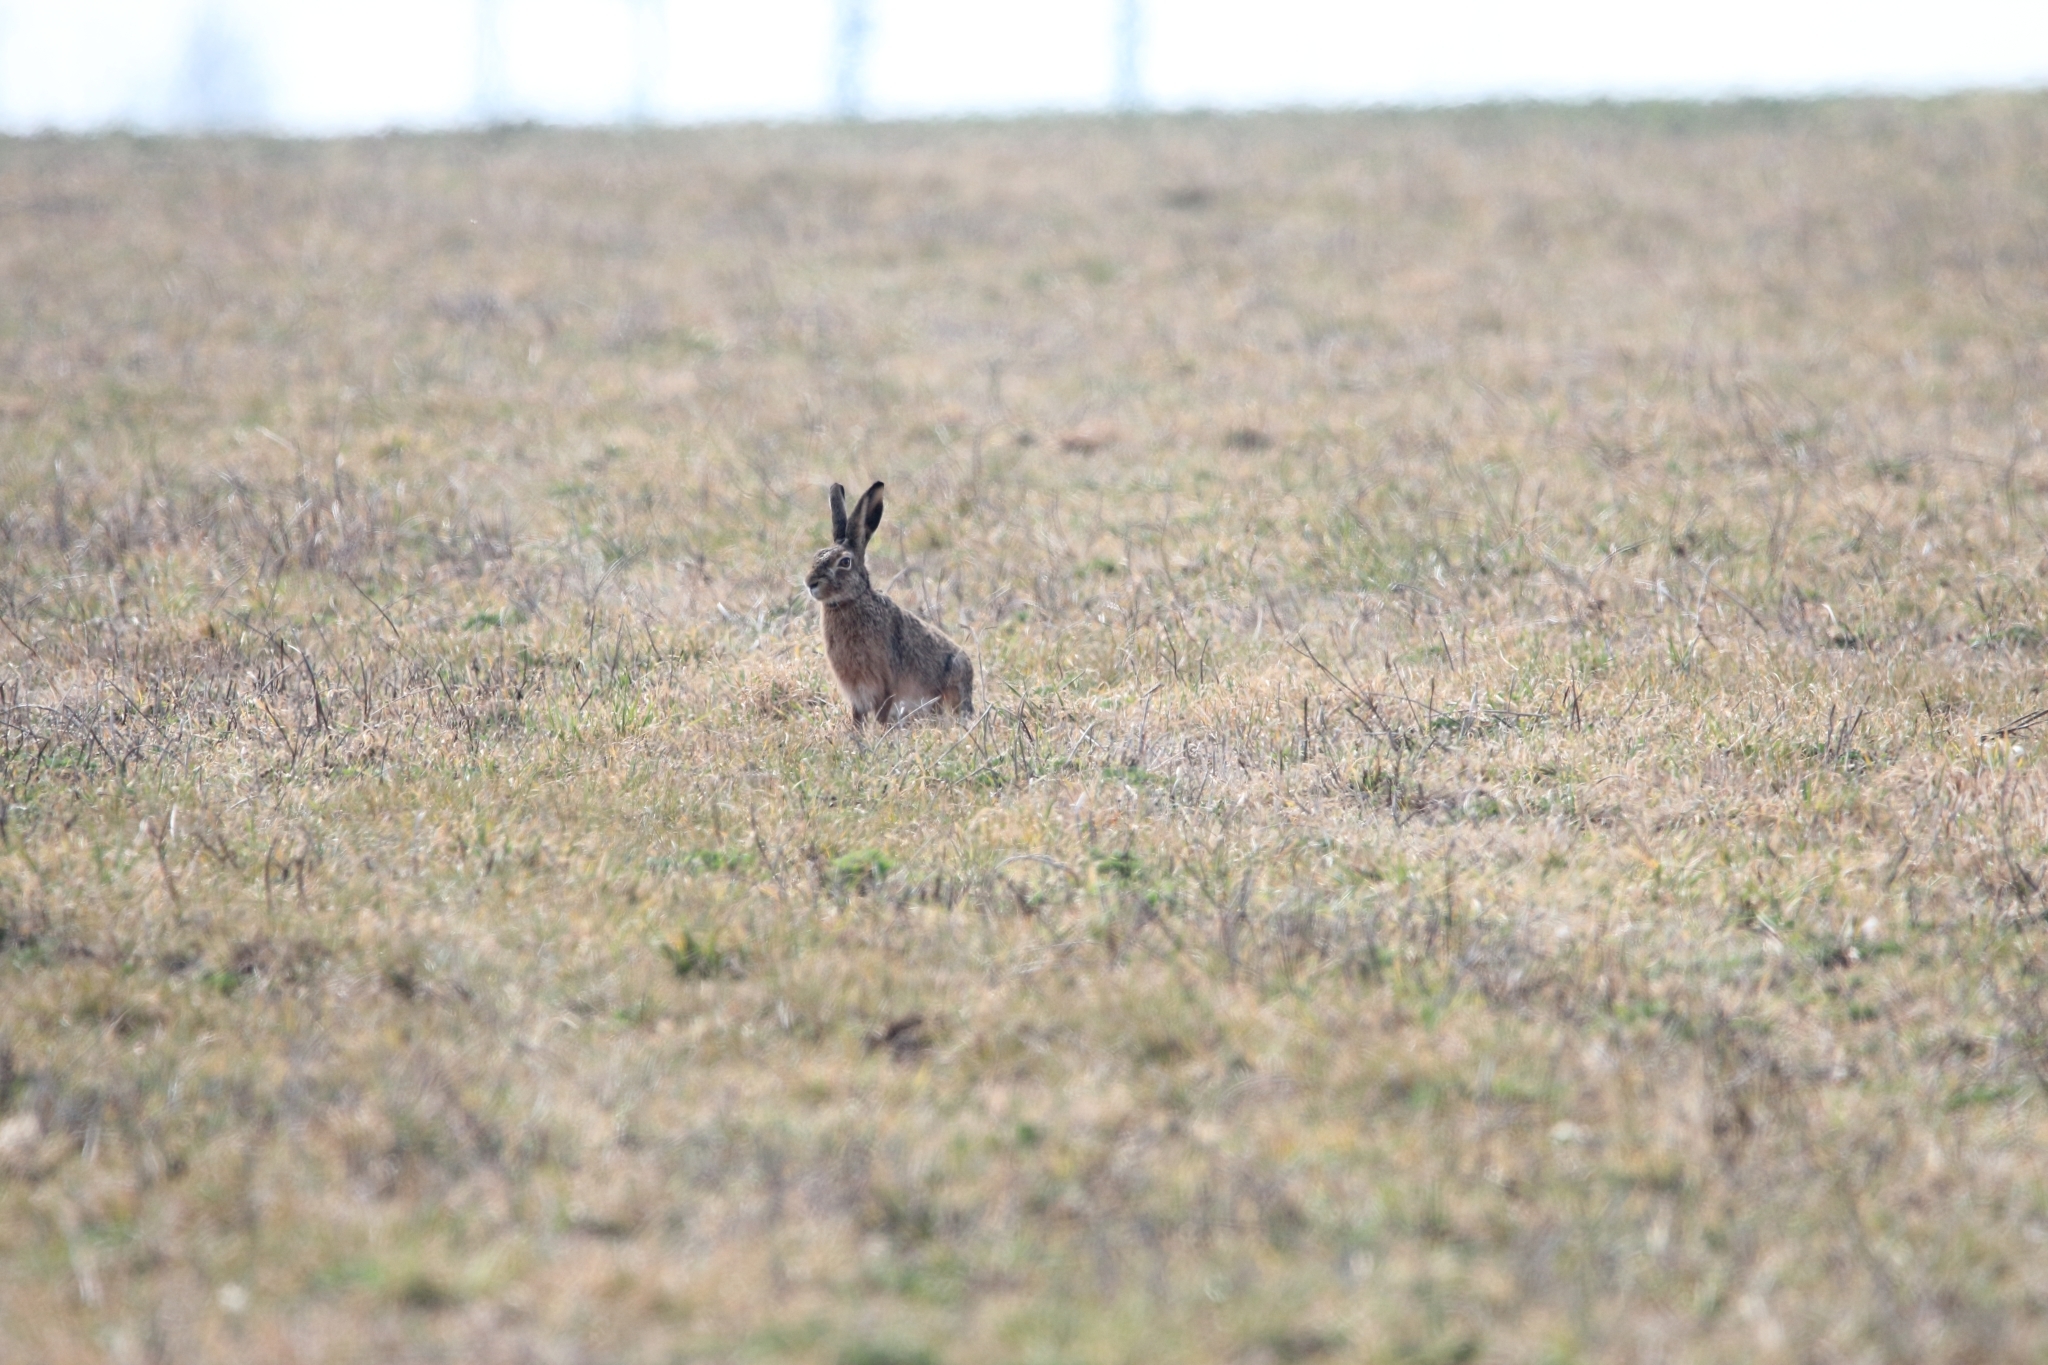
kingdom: Animalia
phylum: Chordata
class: Mammalia
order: Lagomorpha
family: Leporidae
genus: Lepus
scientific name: Lepus europaeus
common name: European hare
